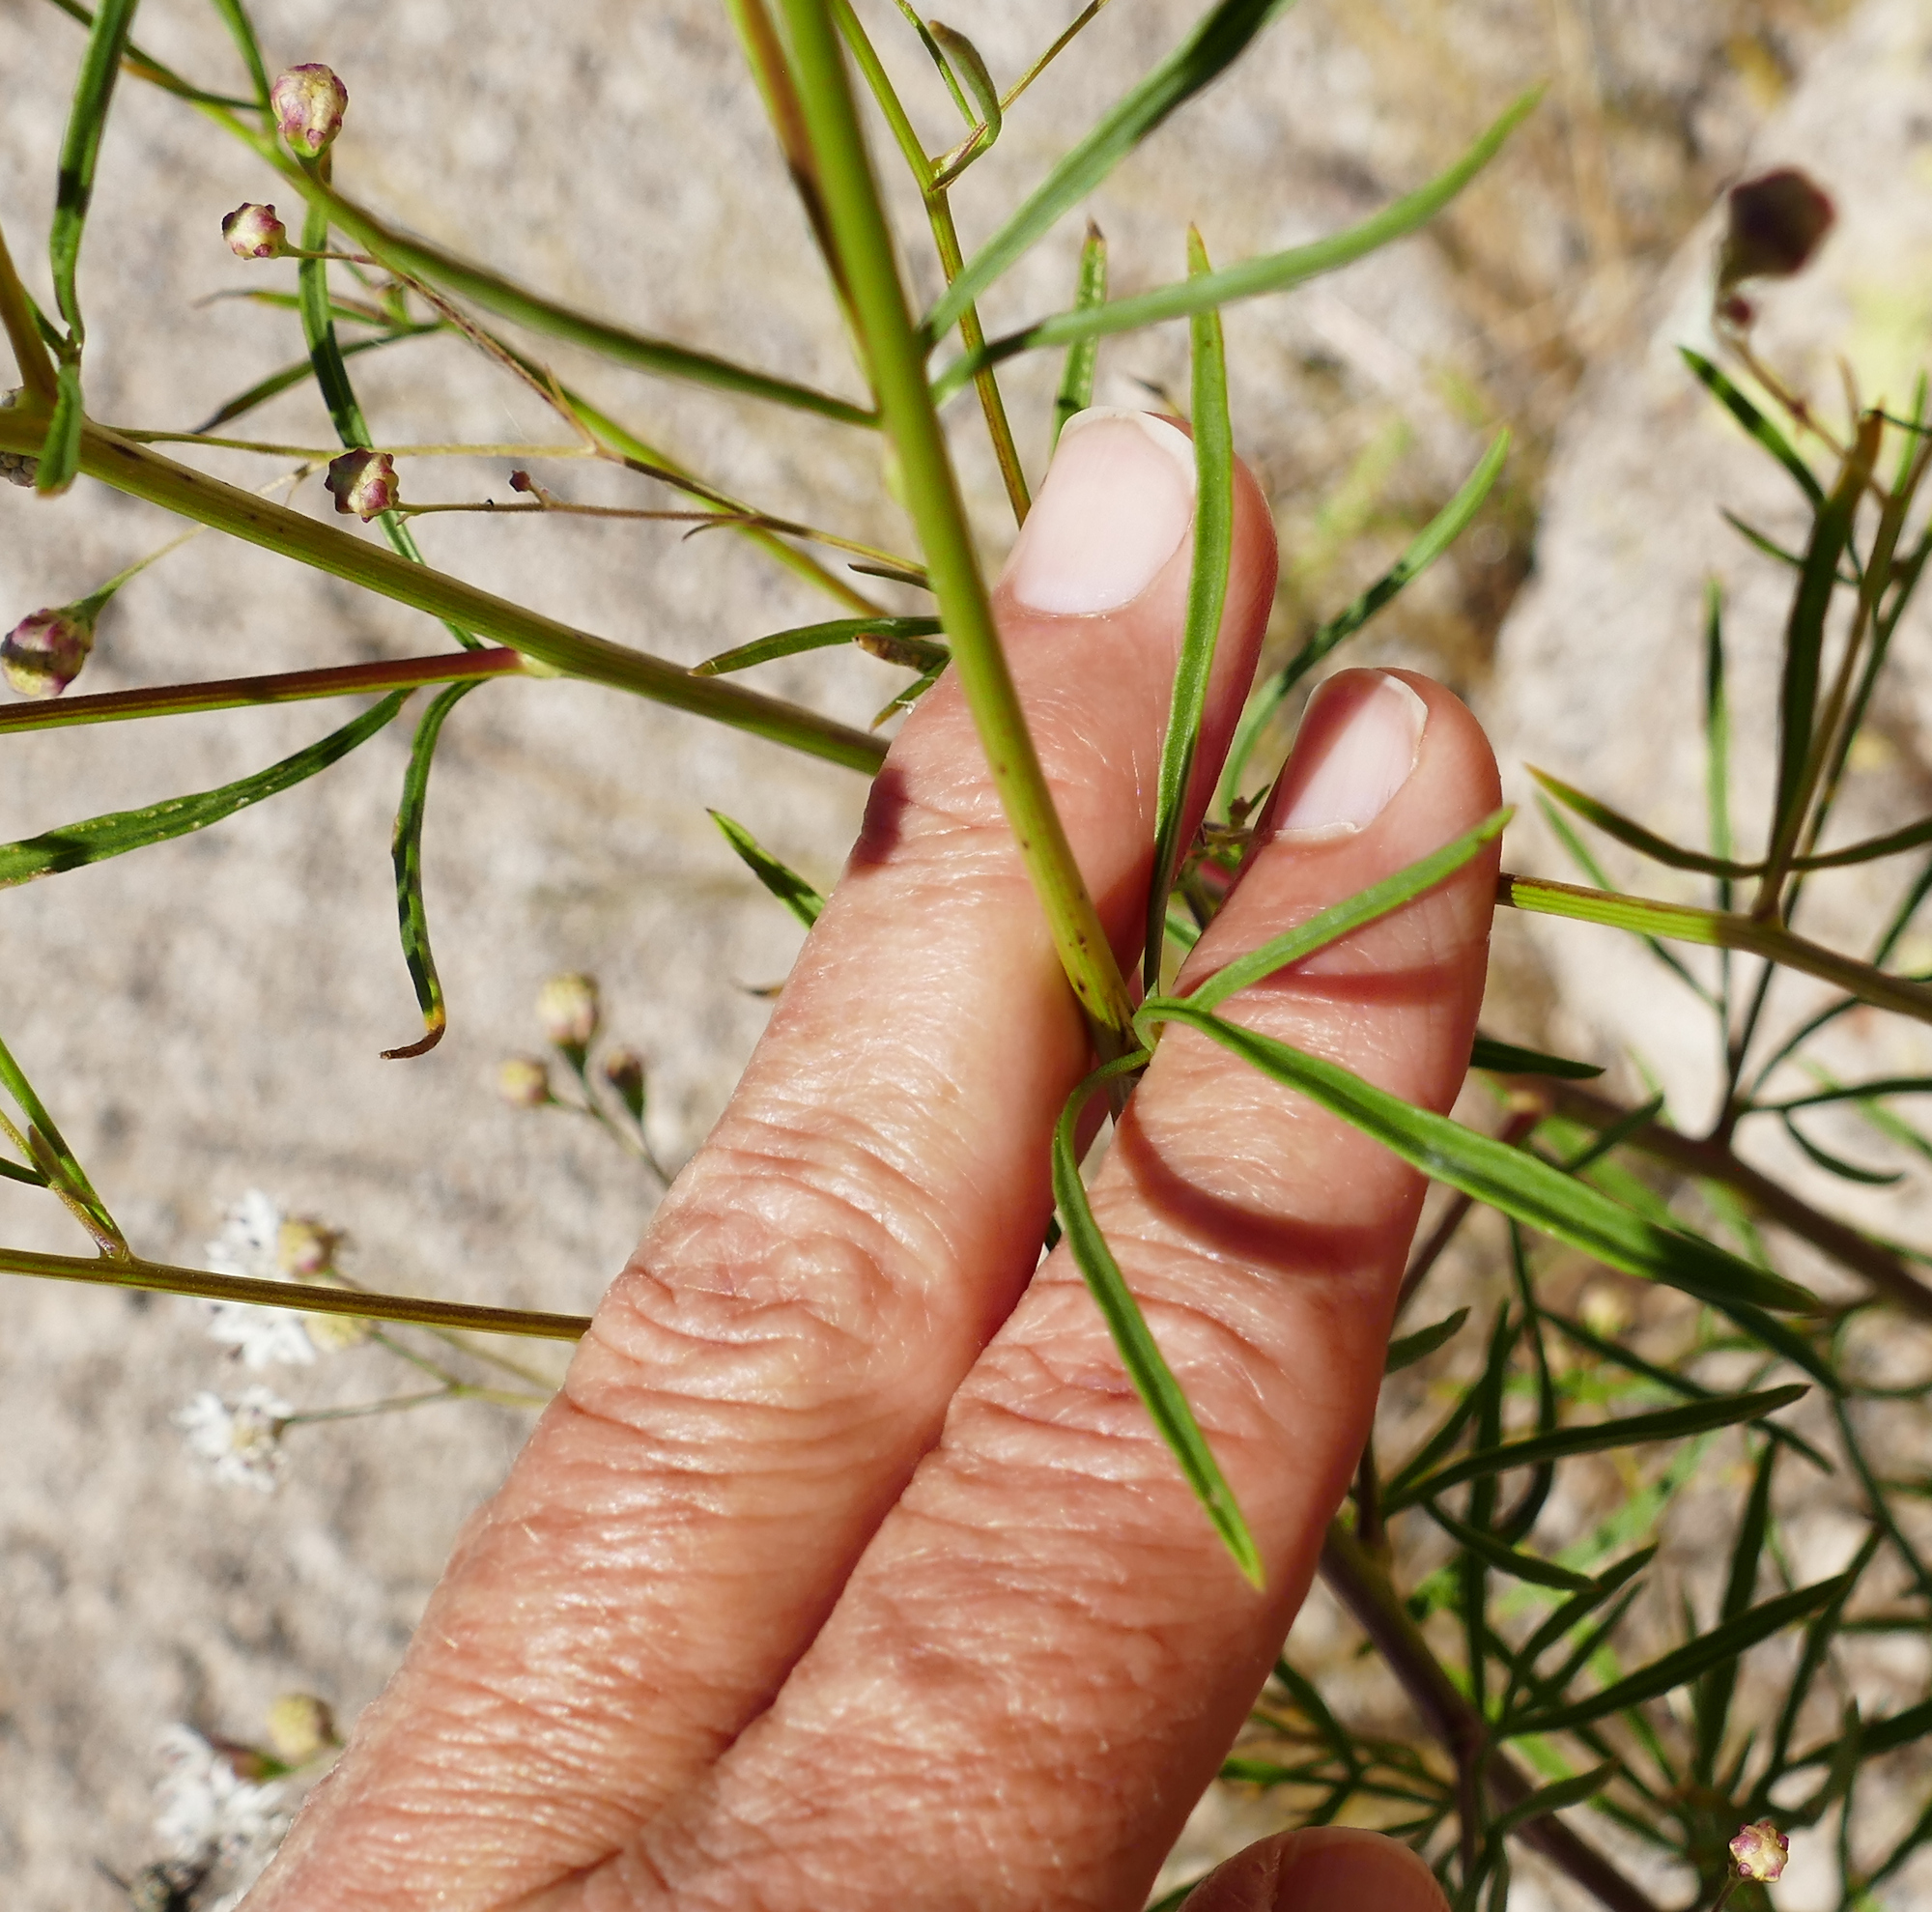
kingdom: Plantae
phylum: Tracheophyta
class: Magnoliopsida
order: Asterales
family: Asteraceae
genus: Hymenothrix
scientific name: Hymenothrix wrightii
